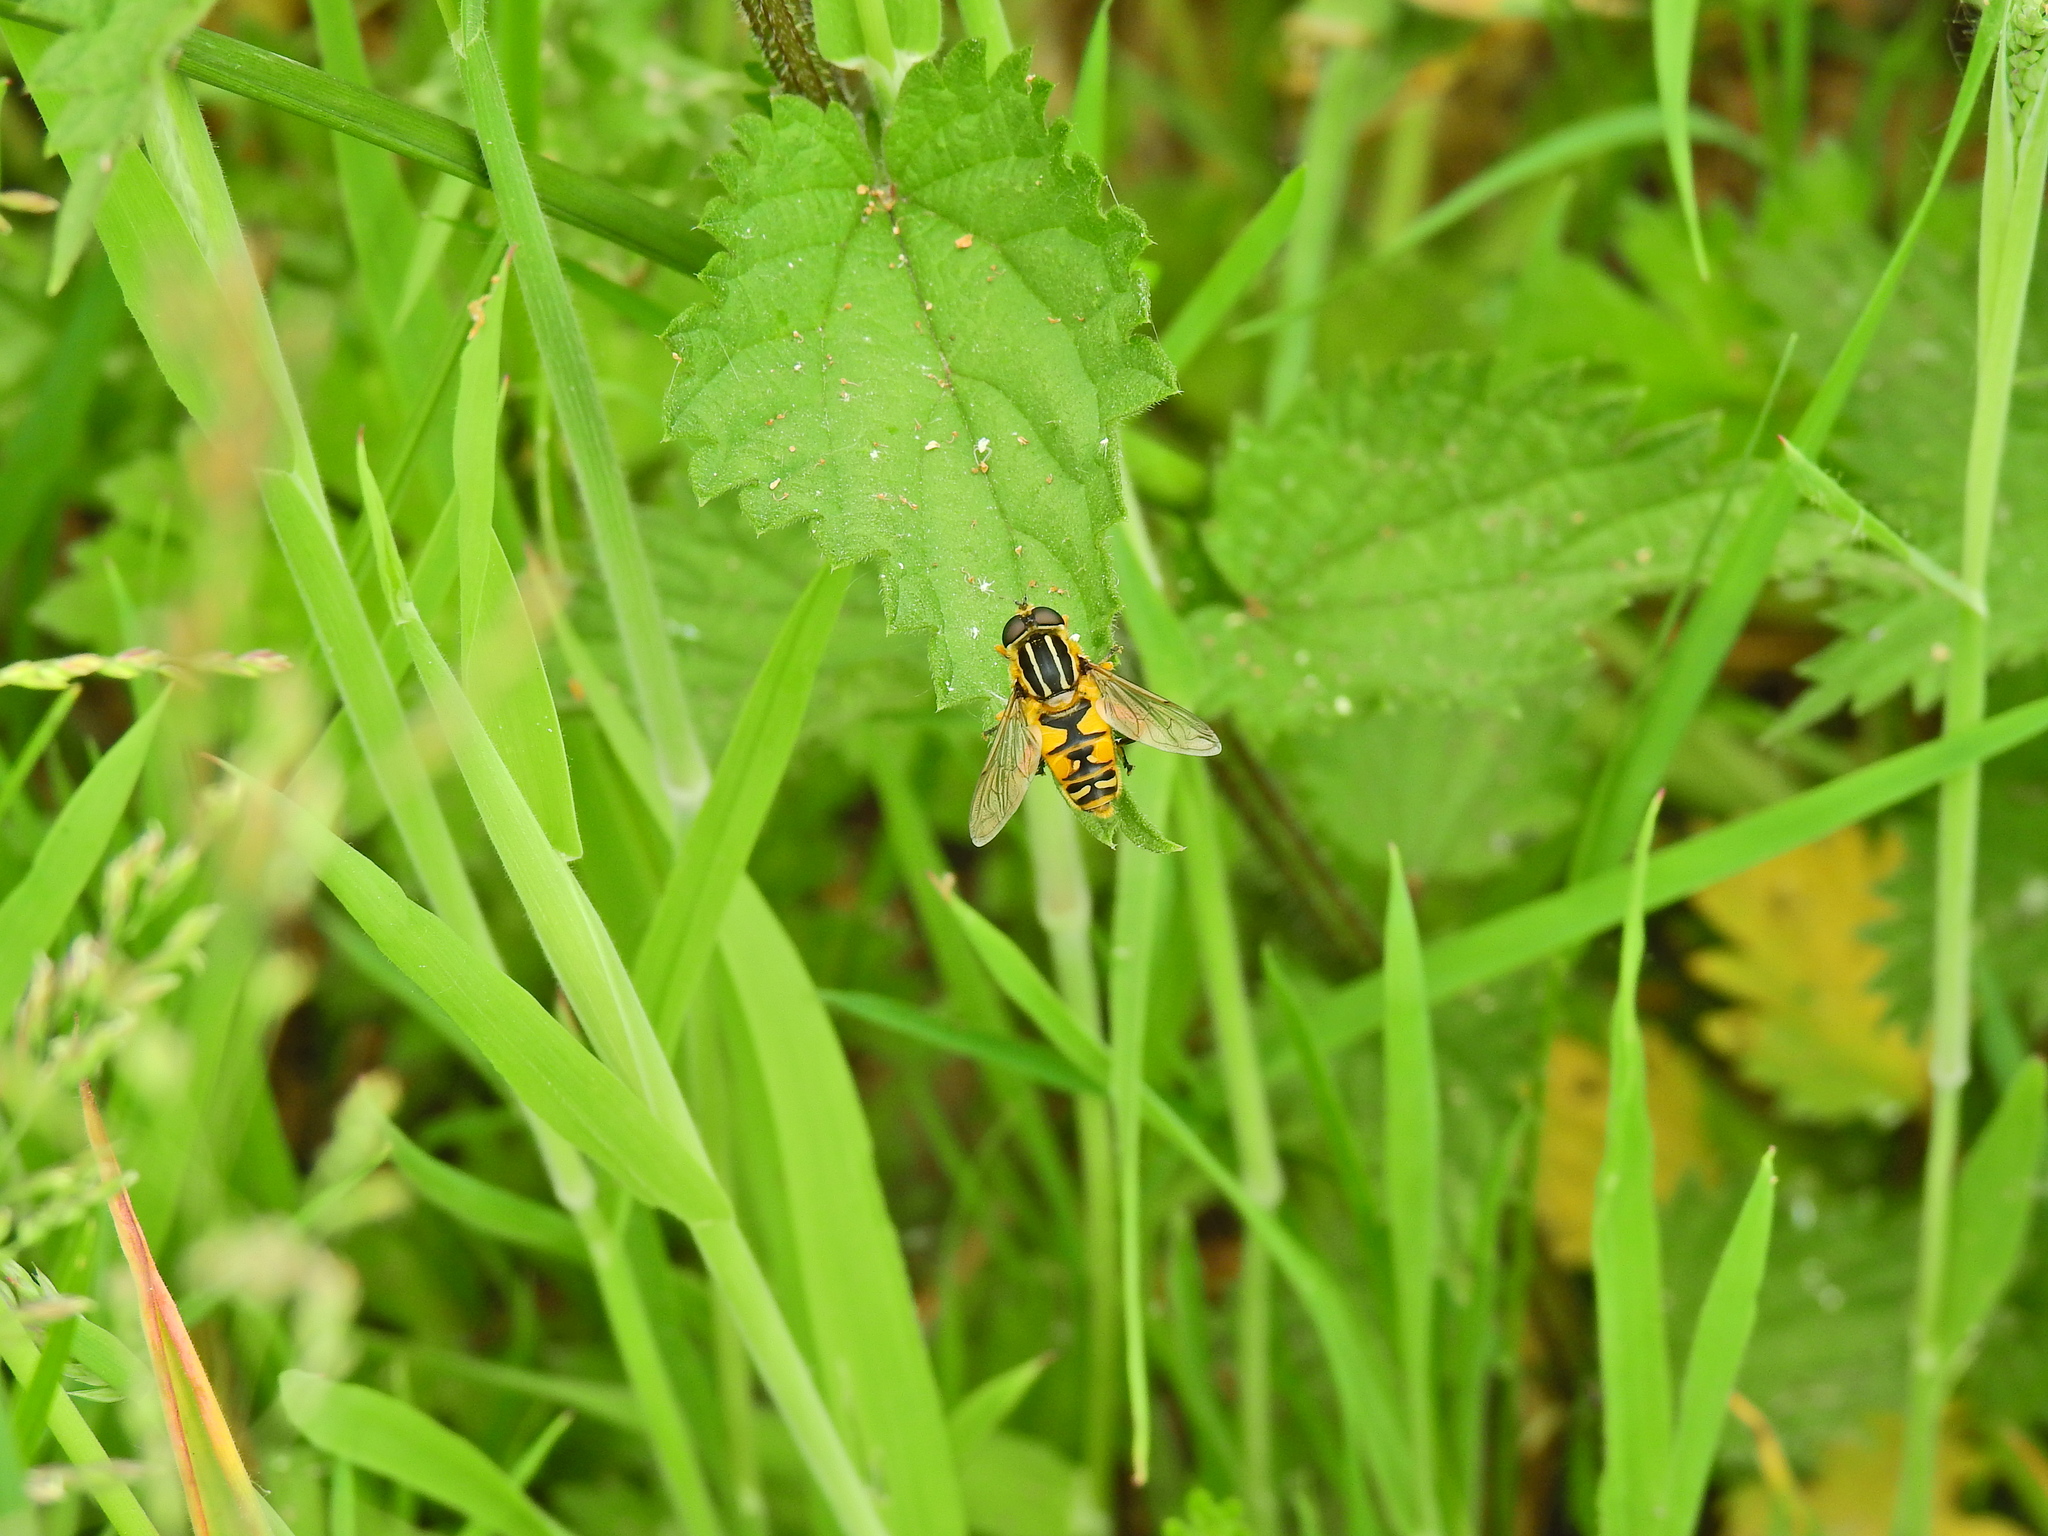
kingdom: Animalia
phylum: Arthropoda
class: Insecta
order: Diptera
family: Syrphidae
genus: Helophilus
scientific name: Helophilus pendulus
